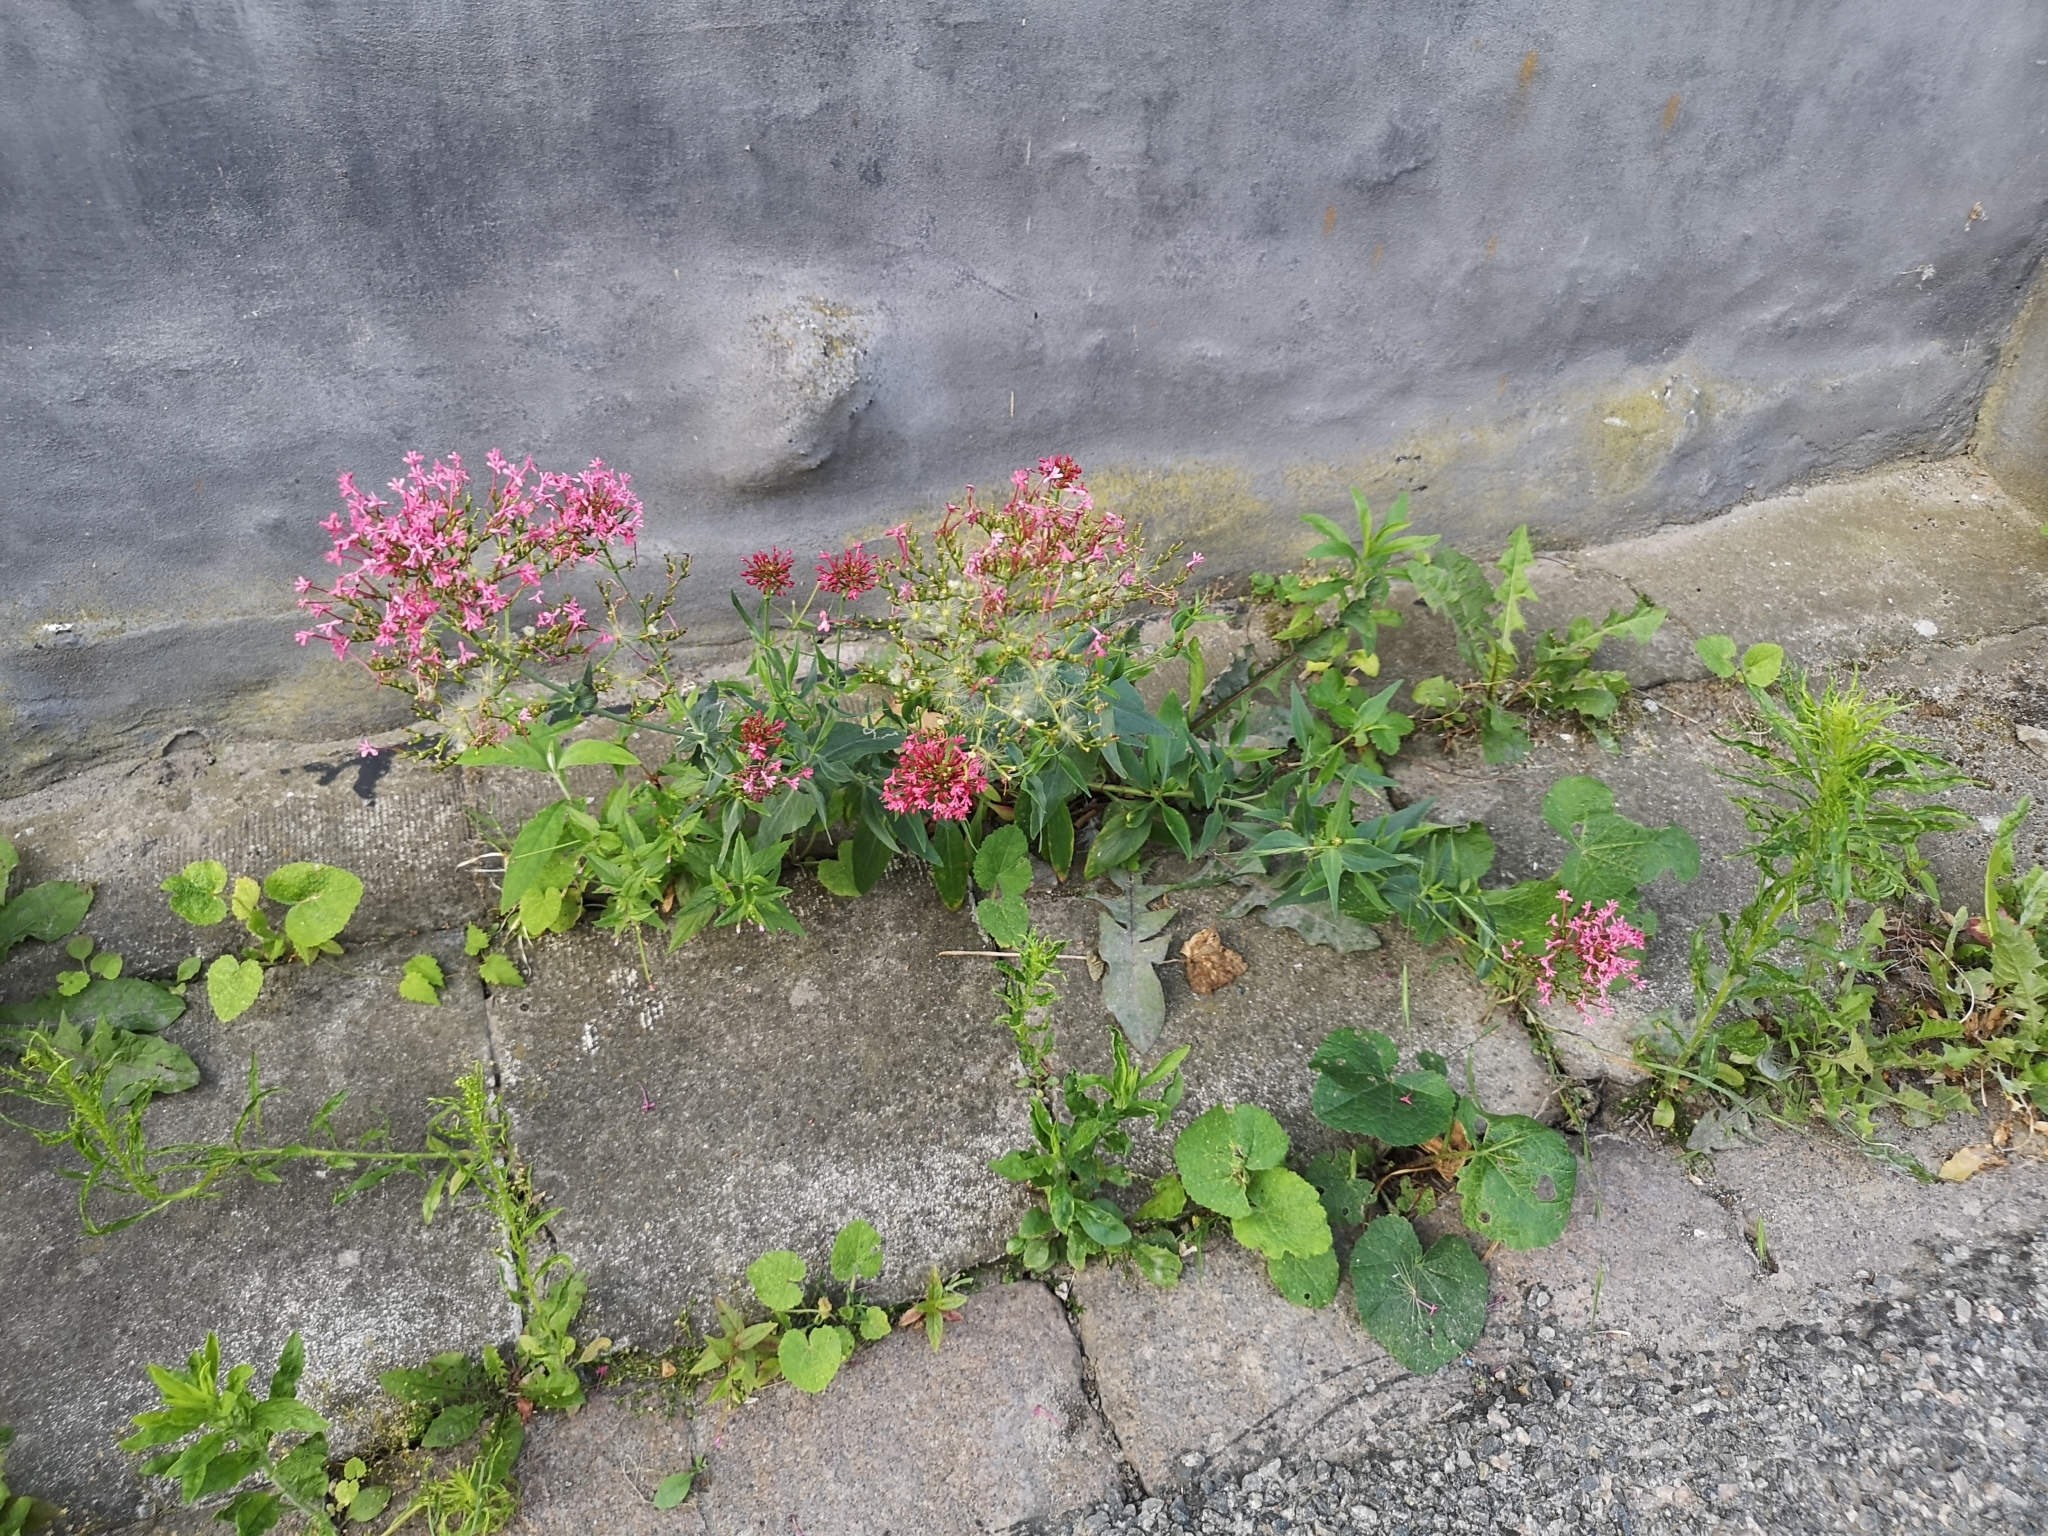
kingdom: Plantae
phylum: Tracheophyta
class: Magnoliopsida
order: Dipsacales
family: Caprifoliaceae
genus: Centranthus
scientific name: Centranthus ruber
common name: Red valerian
